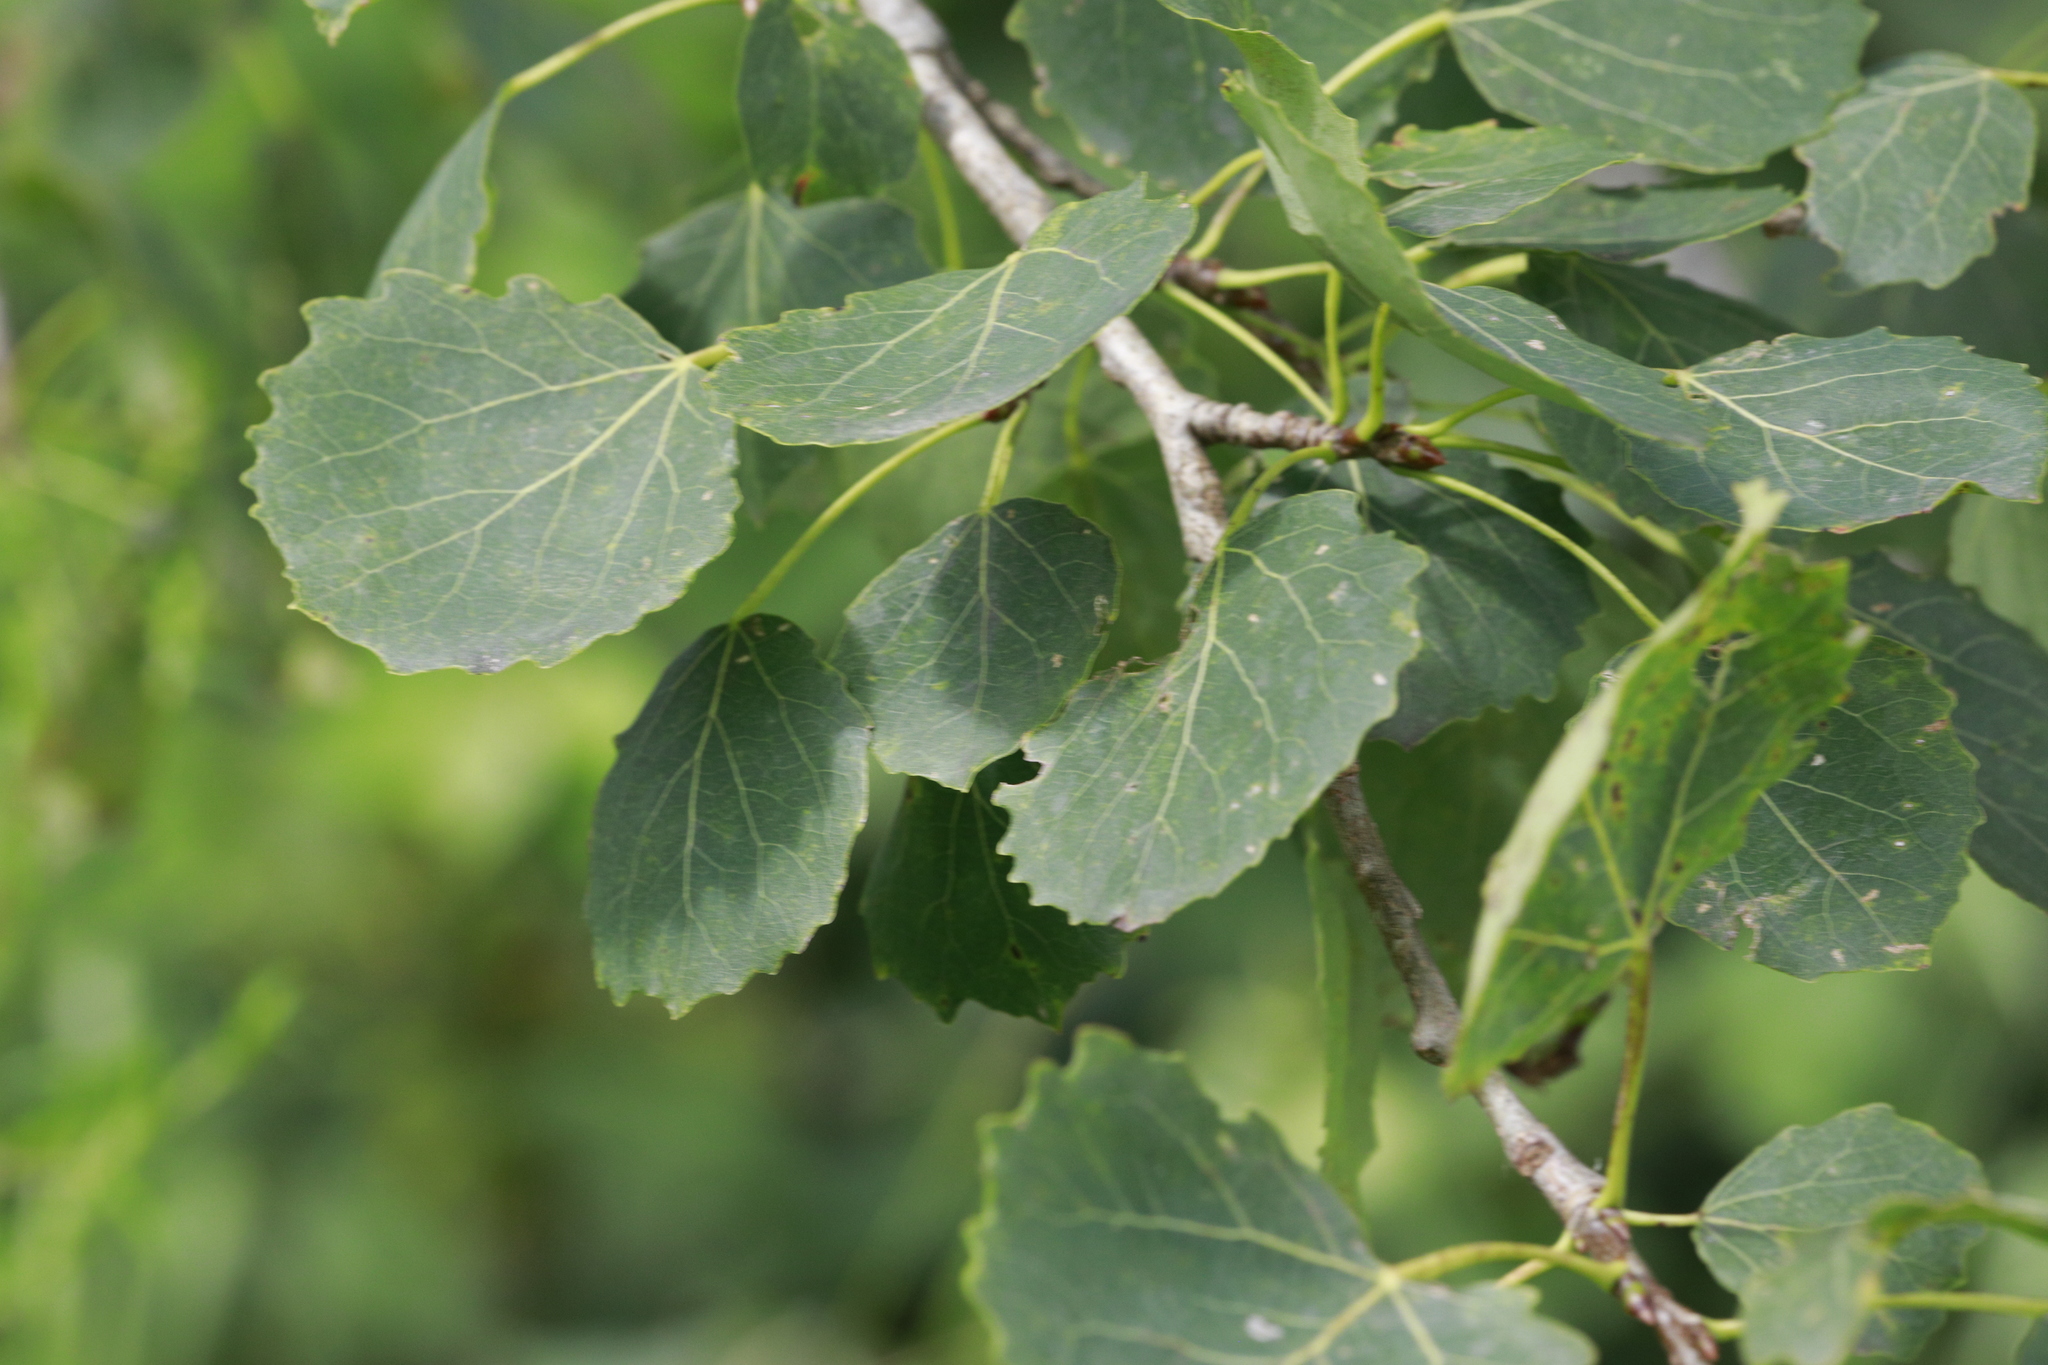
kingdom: Plantae
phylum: Tracheophyta
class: Magnoliopsida
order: Malpighiales
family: Salicaceae
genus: Populus
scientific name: Populus tremula
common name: European aspen
